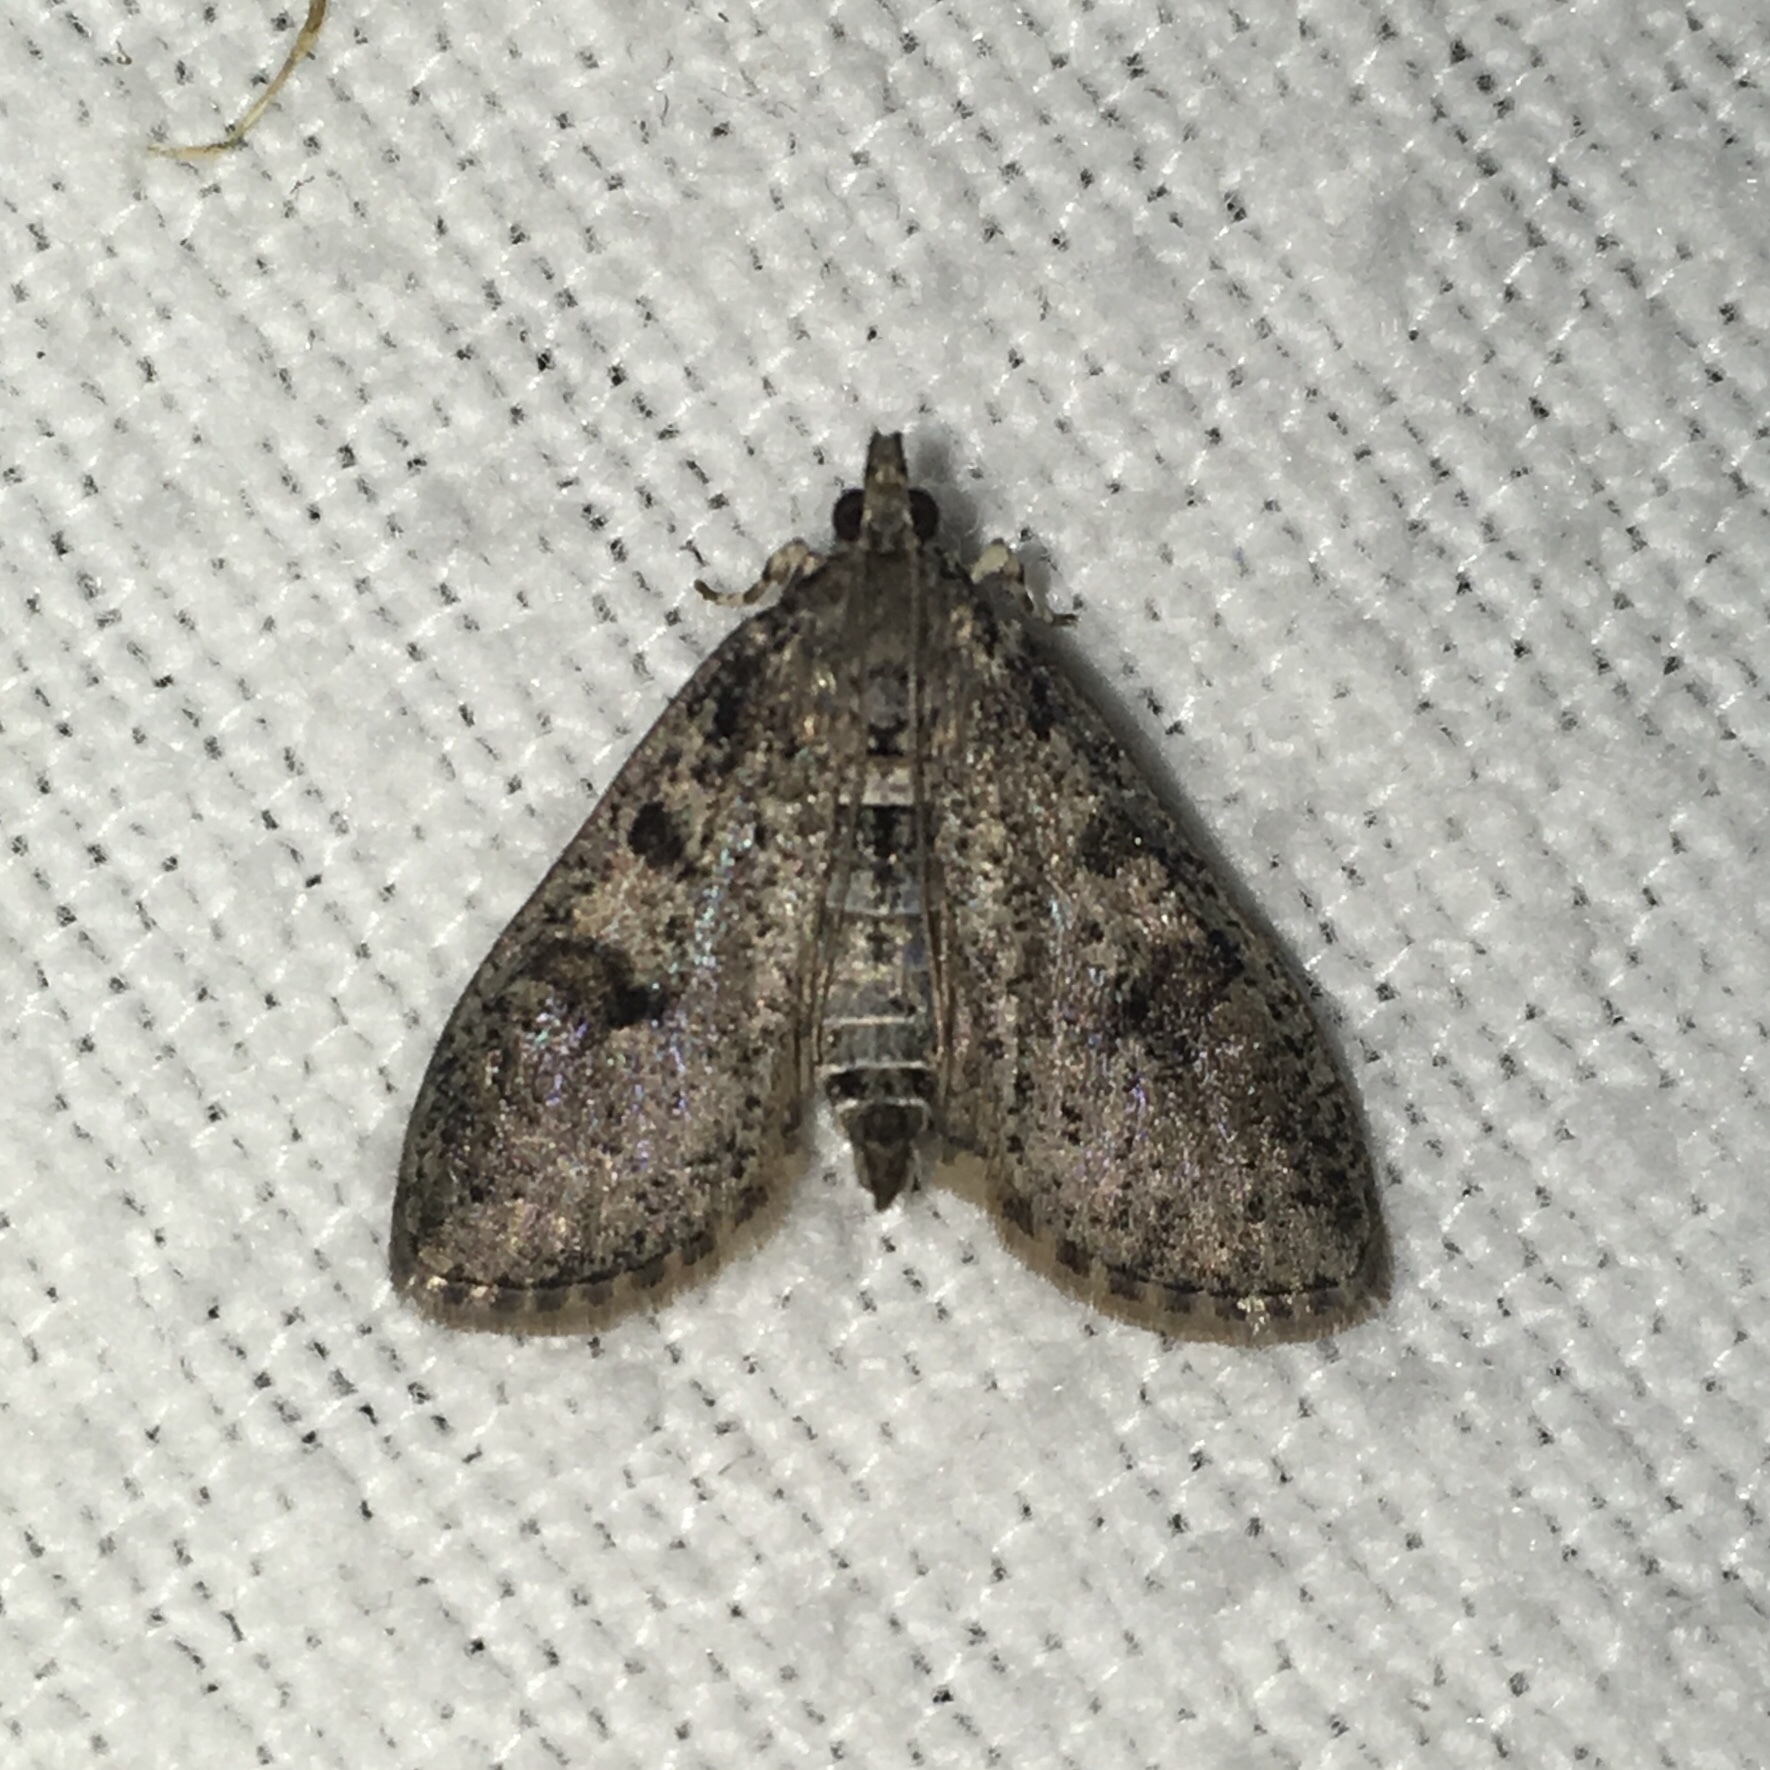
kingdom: Animalia
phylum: Arthropoda
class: Insecta
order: Lepidoptera
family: Crambidae
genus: Palpita
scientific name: Palpita aenescentalis
